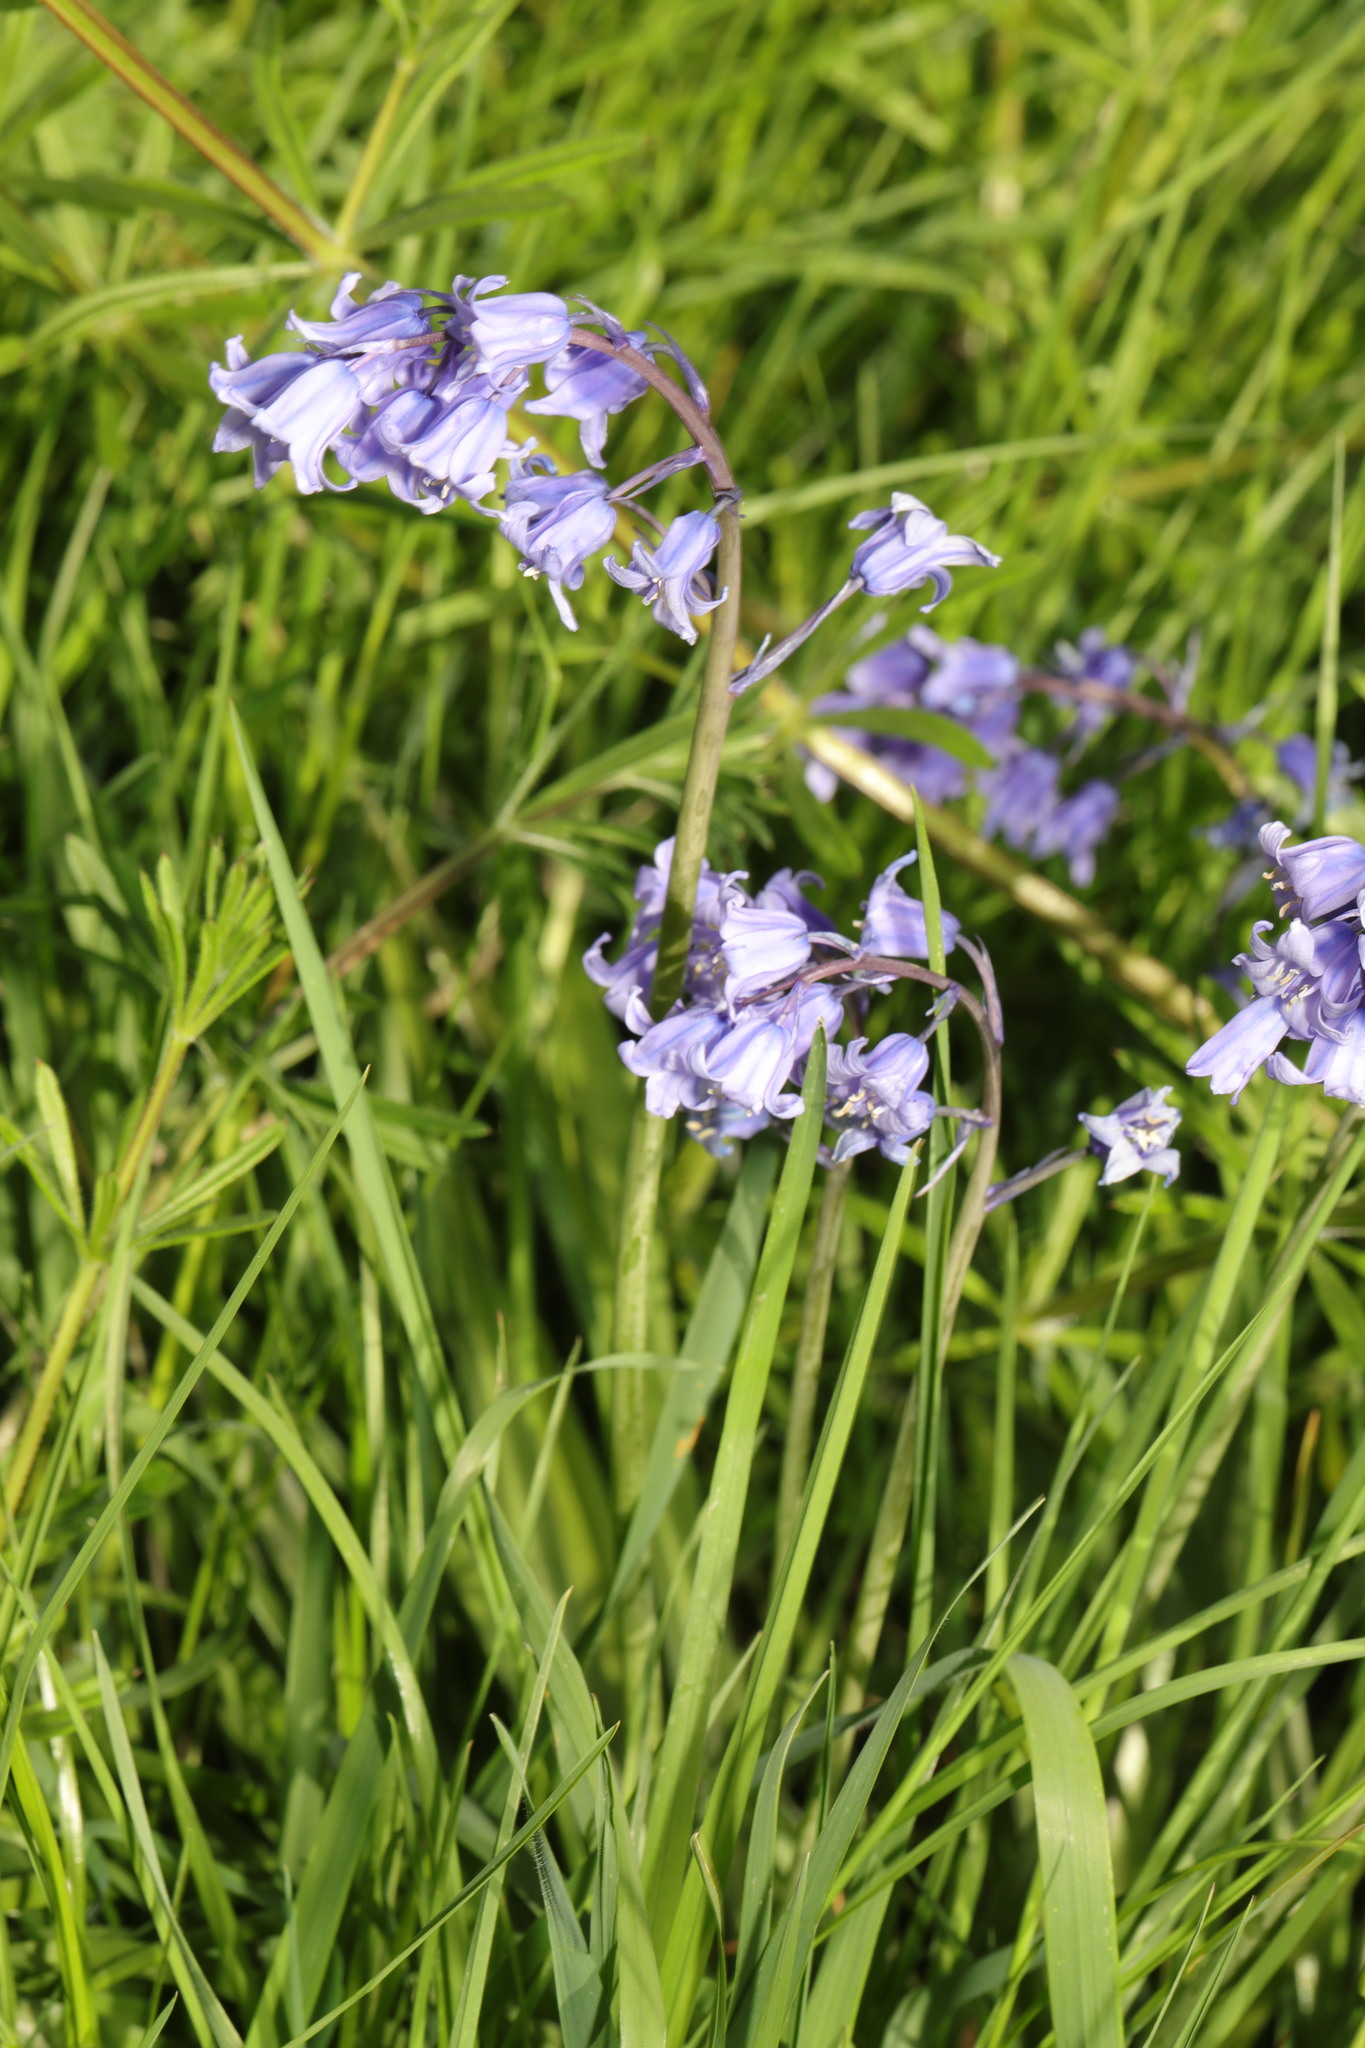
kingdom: Plantae
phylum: Tracheophyta
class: Liliopsida
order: Asparagales
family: Asparagaceae
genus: Hyacinthoides
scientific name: Hyacinthoides massartiana
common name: Hyacinthoides
